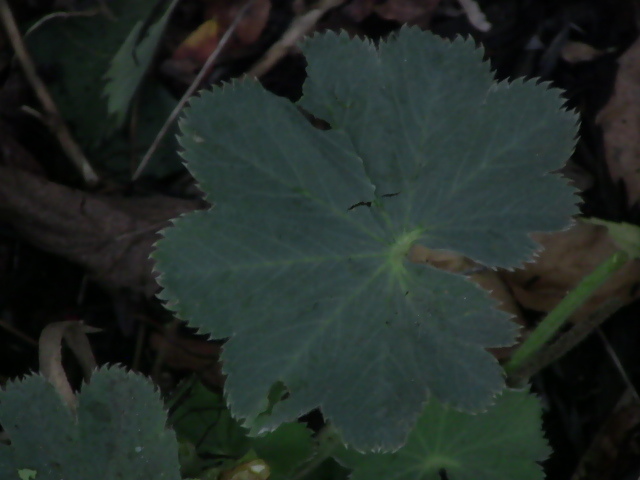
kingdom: Plantae
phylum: Tracheophyta
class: Magnoliopsida
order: Rosales
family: Rosaceae
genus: Alchemilla
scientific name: Alchemilla mollis
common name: Lady's-mantle
